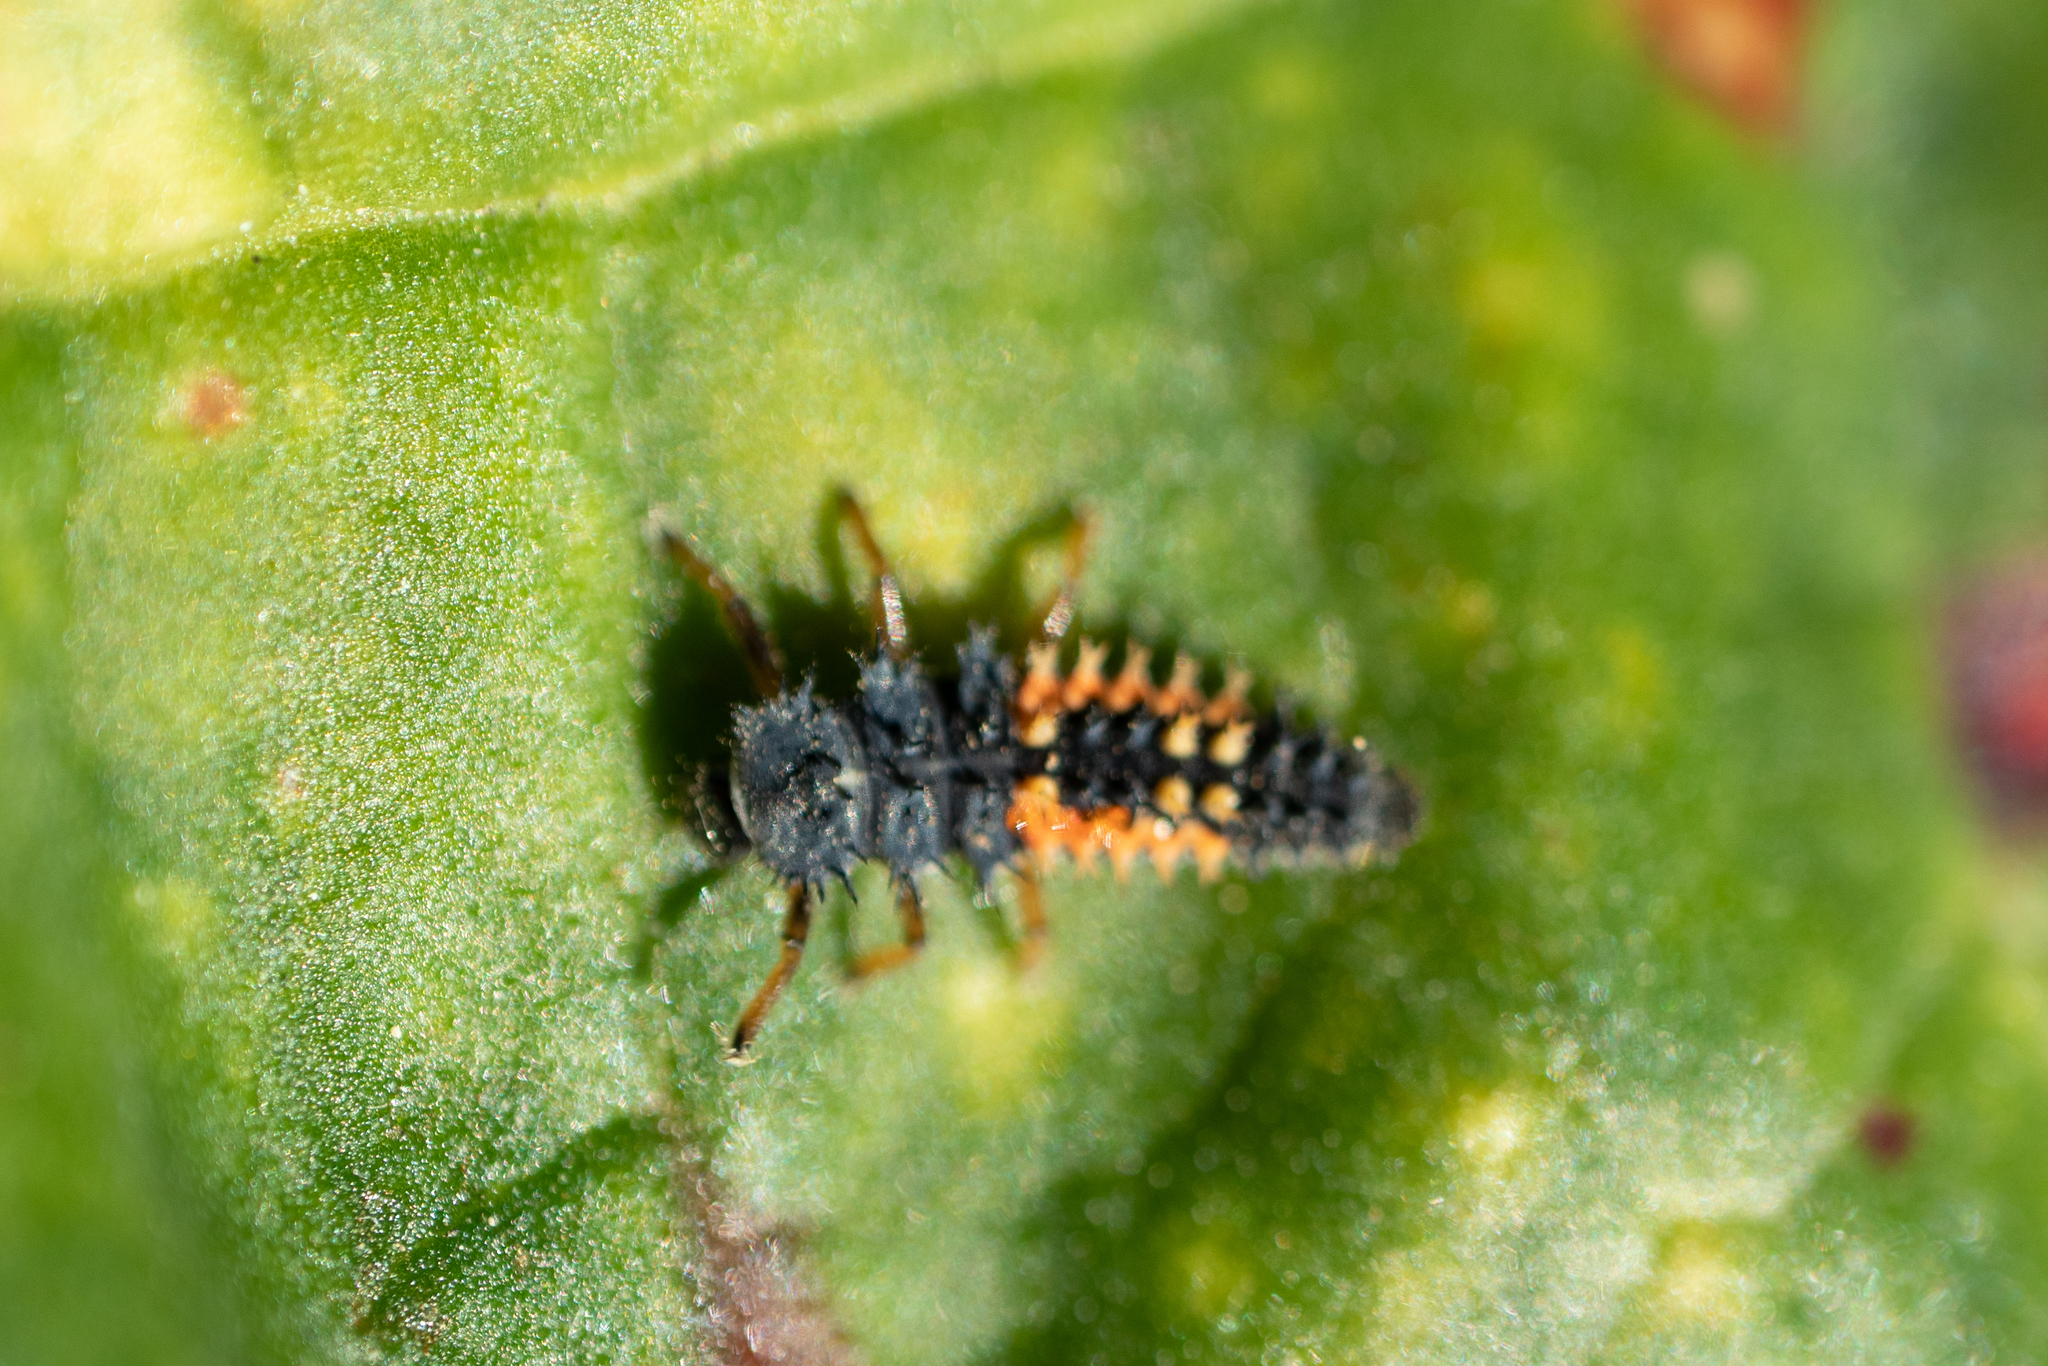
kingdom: Animalia
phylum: Arthropoda
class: Insecta
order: Coleoptera
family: Coccinellidae
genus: Harmonia
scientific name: Harmonia axyridis
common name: Harlequin ladybird
